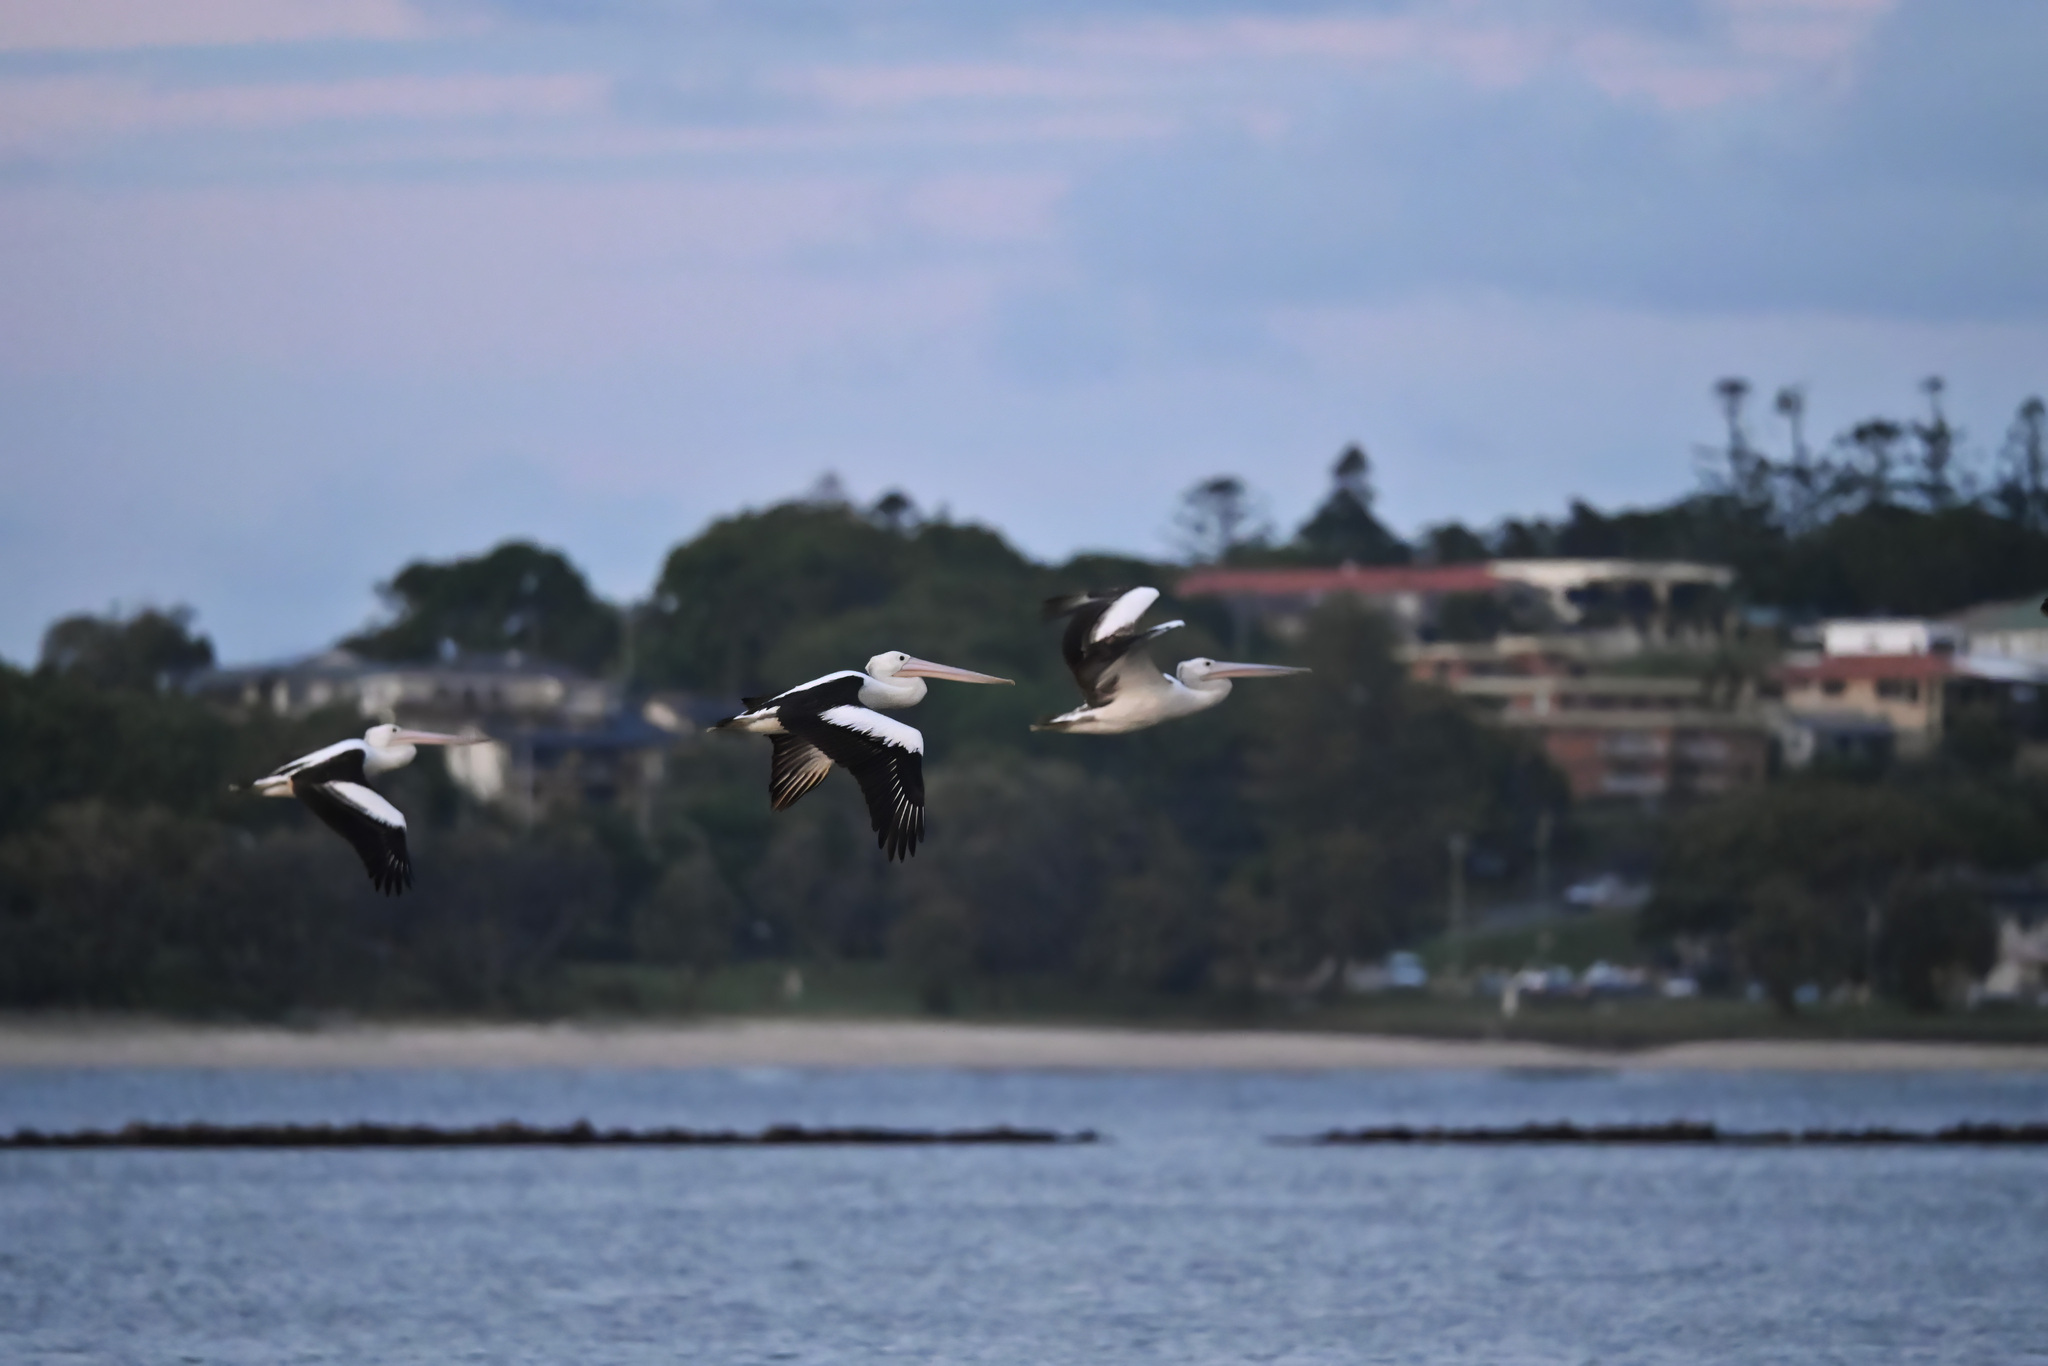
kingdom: Animalia
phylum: Chordata
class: Aves
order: Pelecaniformes
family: Pelecanidae
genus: Pelecanus
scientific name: Pelecanus conspicillatus
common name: Australian pelican
